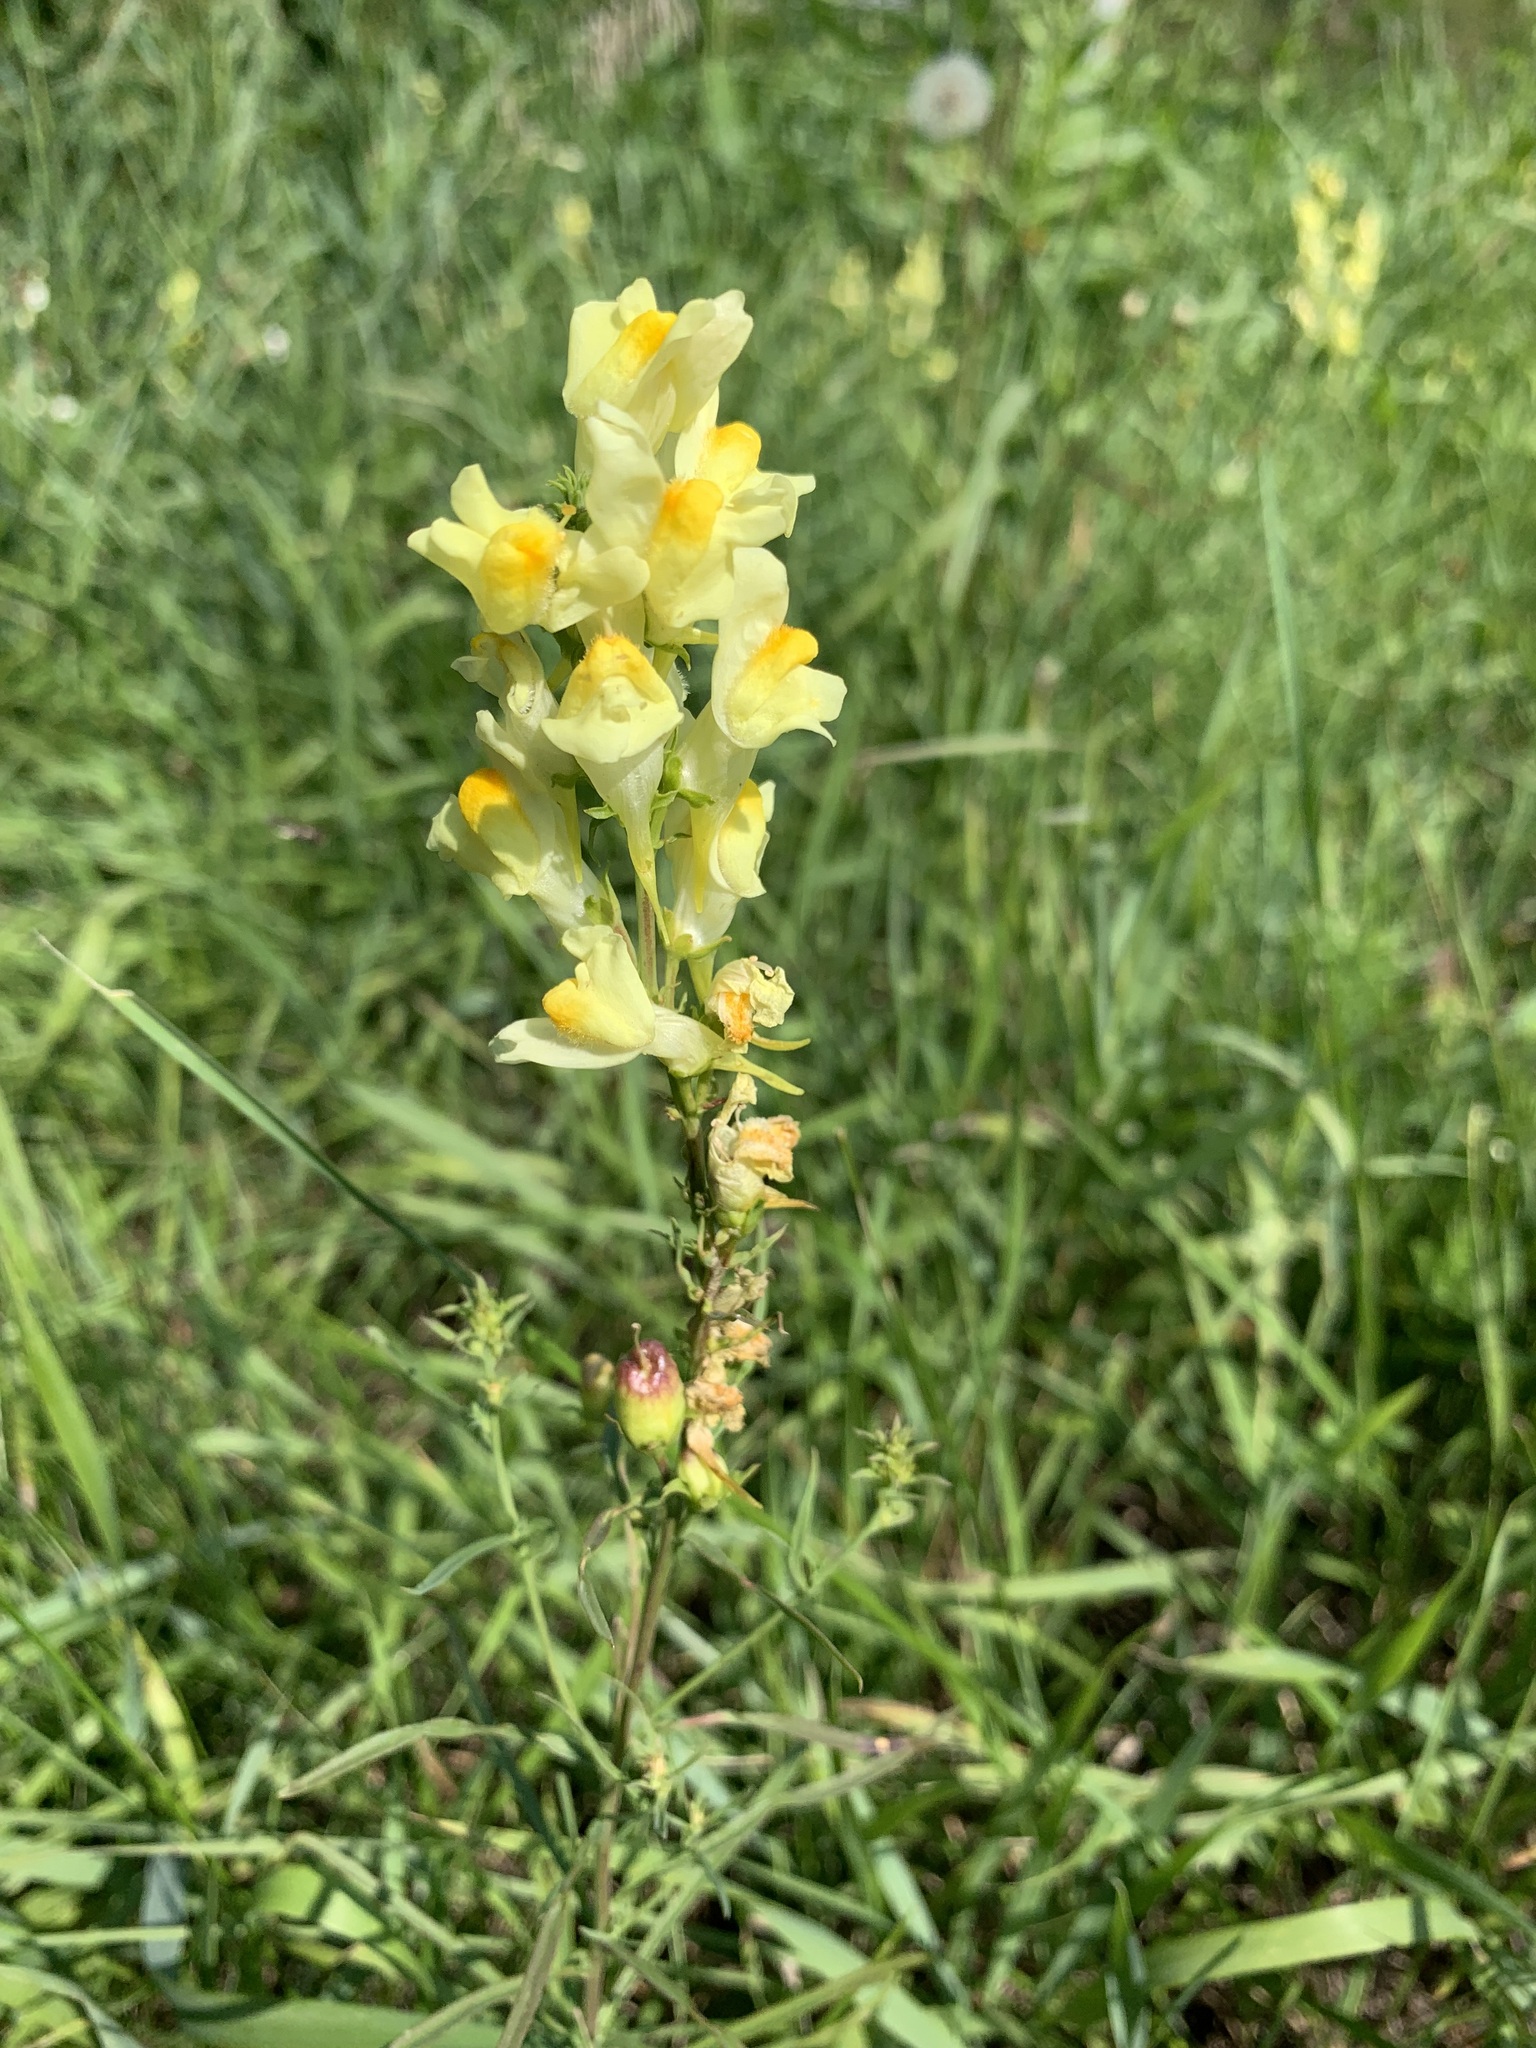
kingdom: Plantae
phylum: Tracheophyta
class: Magnoliopsida
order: Lamiales
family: Plantaginaceae
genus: Linaria
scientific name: Linaria vulgaris
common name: Butter and eggs
